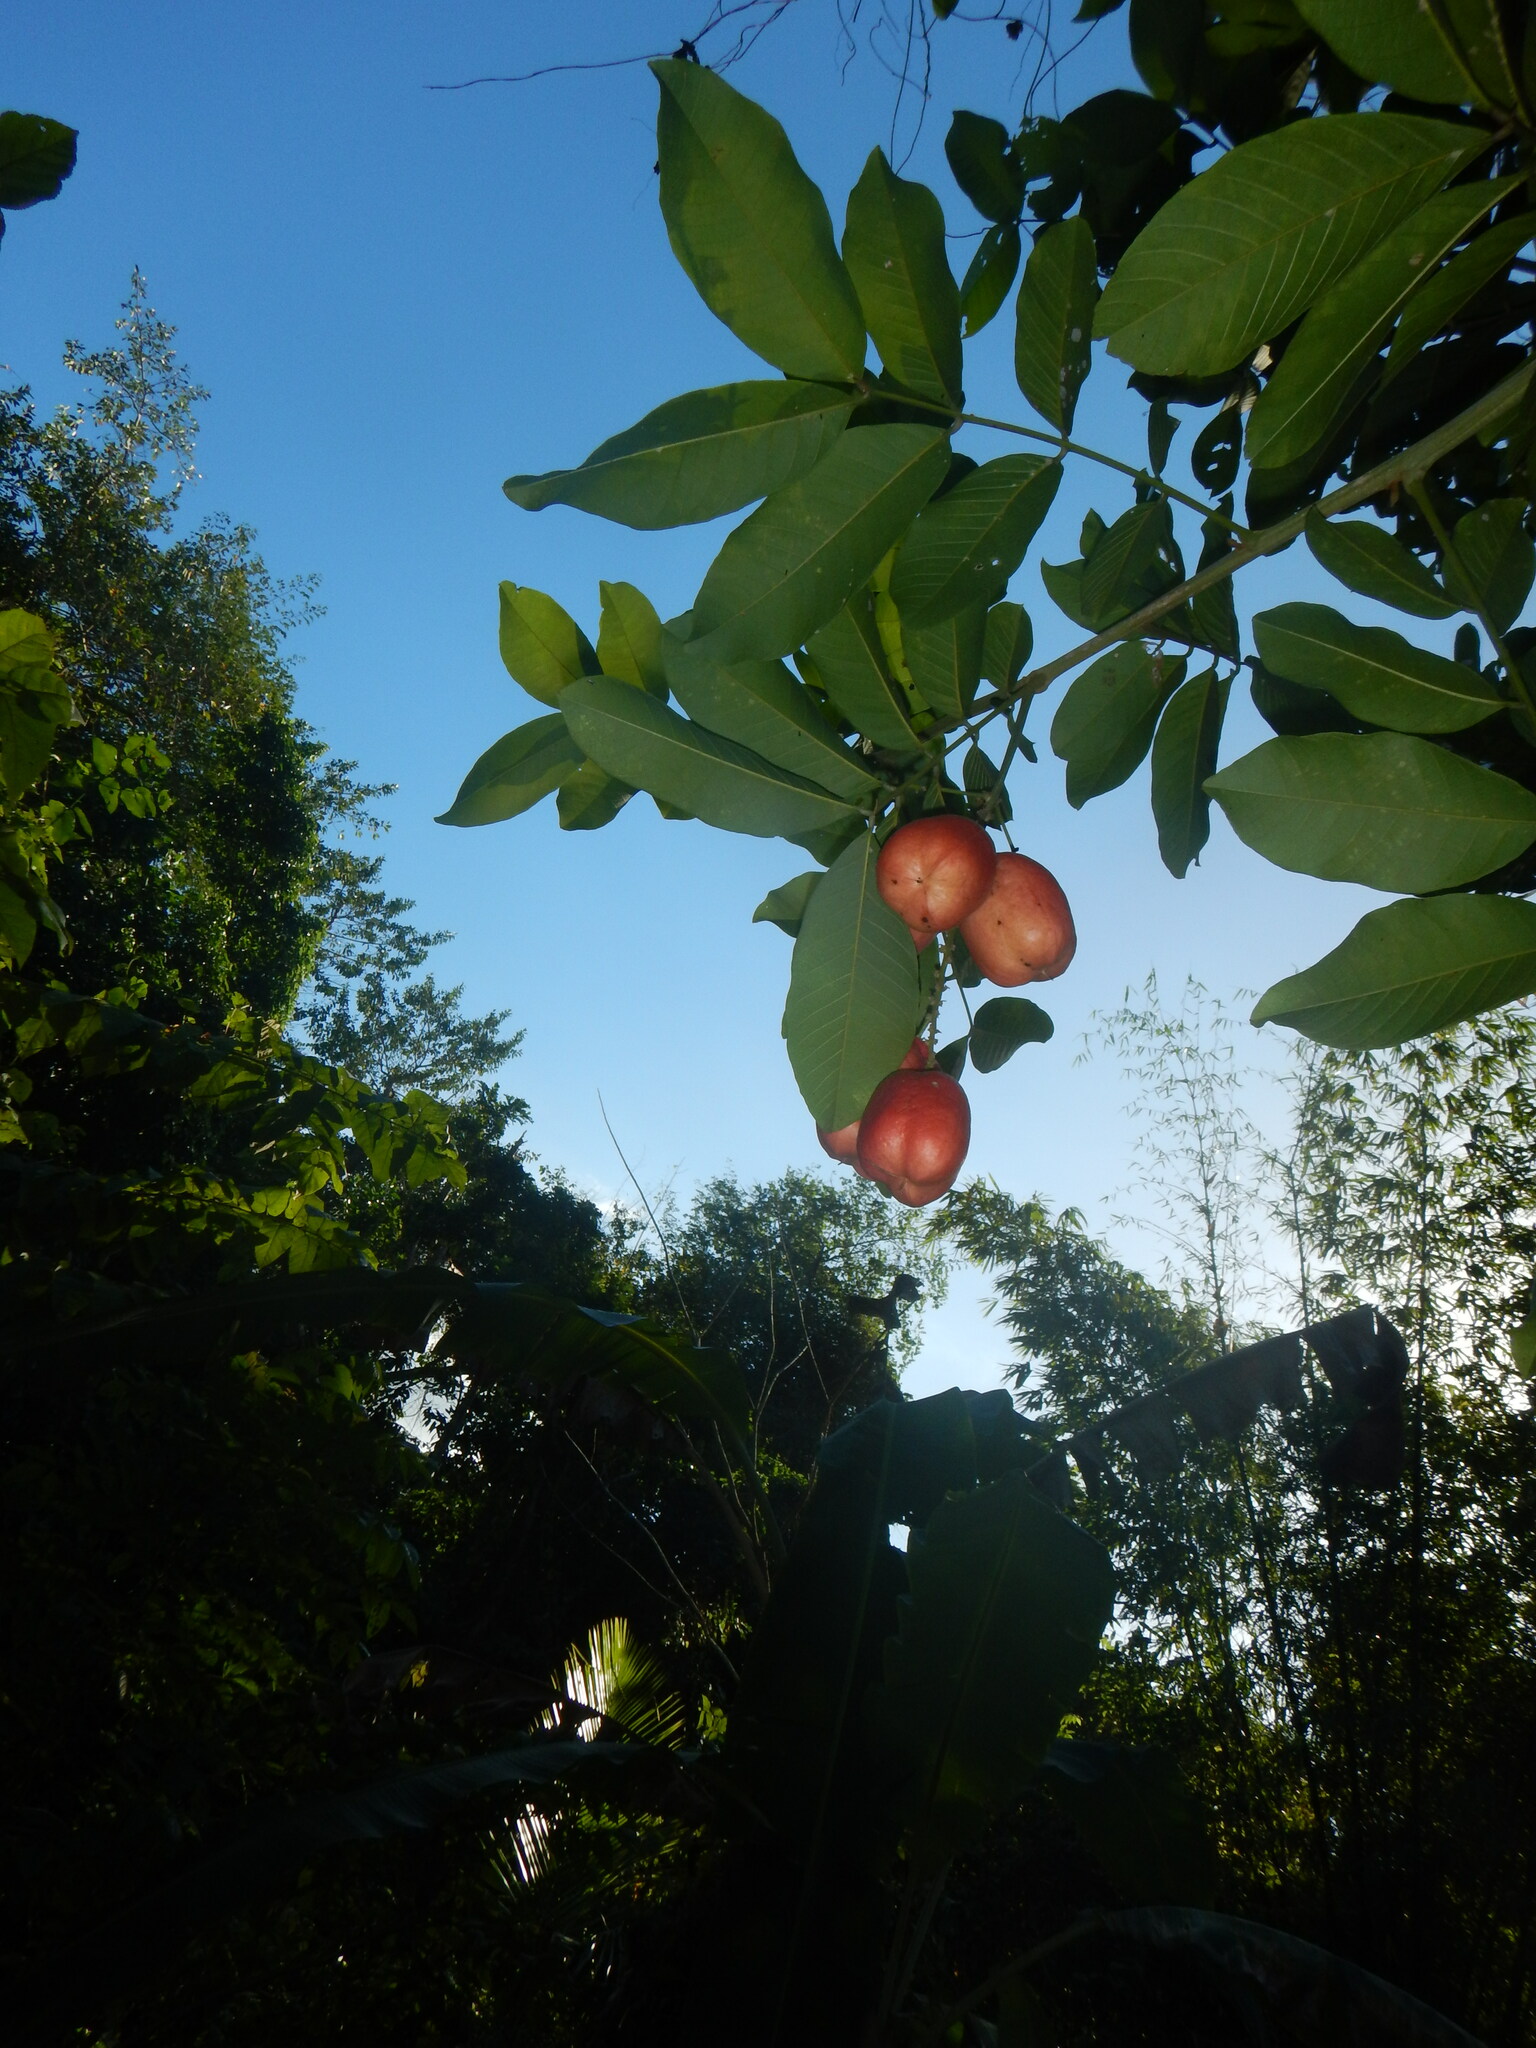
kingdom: Plantae
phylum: Tracheophyta
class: Magnoliopsida
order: Sapindales
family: Sapindaceae
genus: Blighia
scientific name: Blighia sapida
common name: Akee
